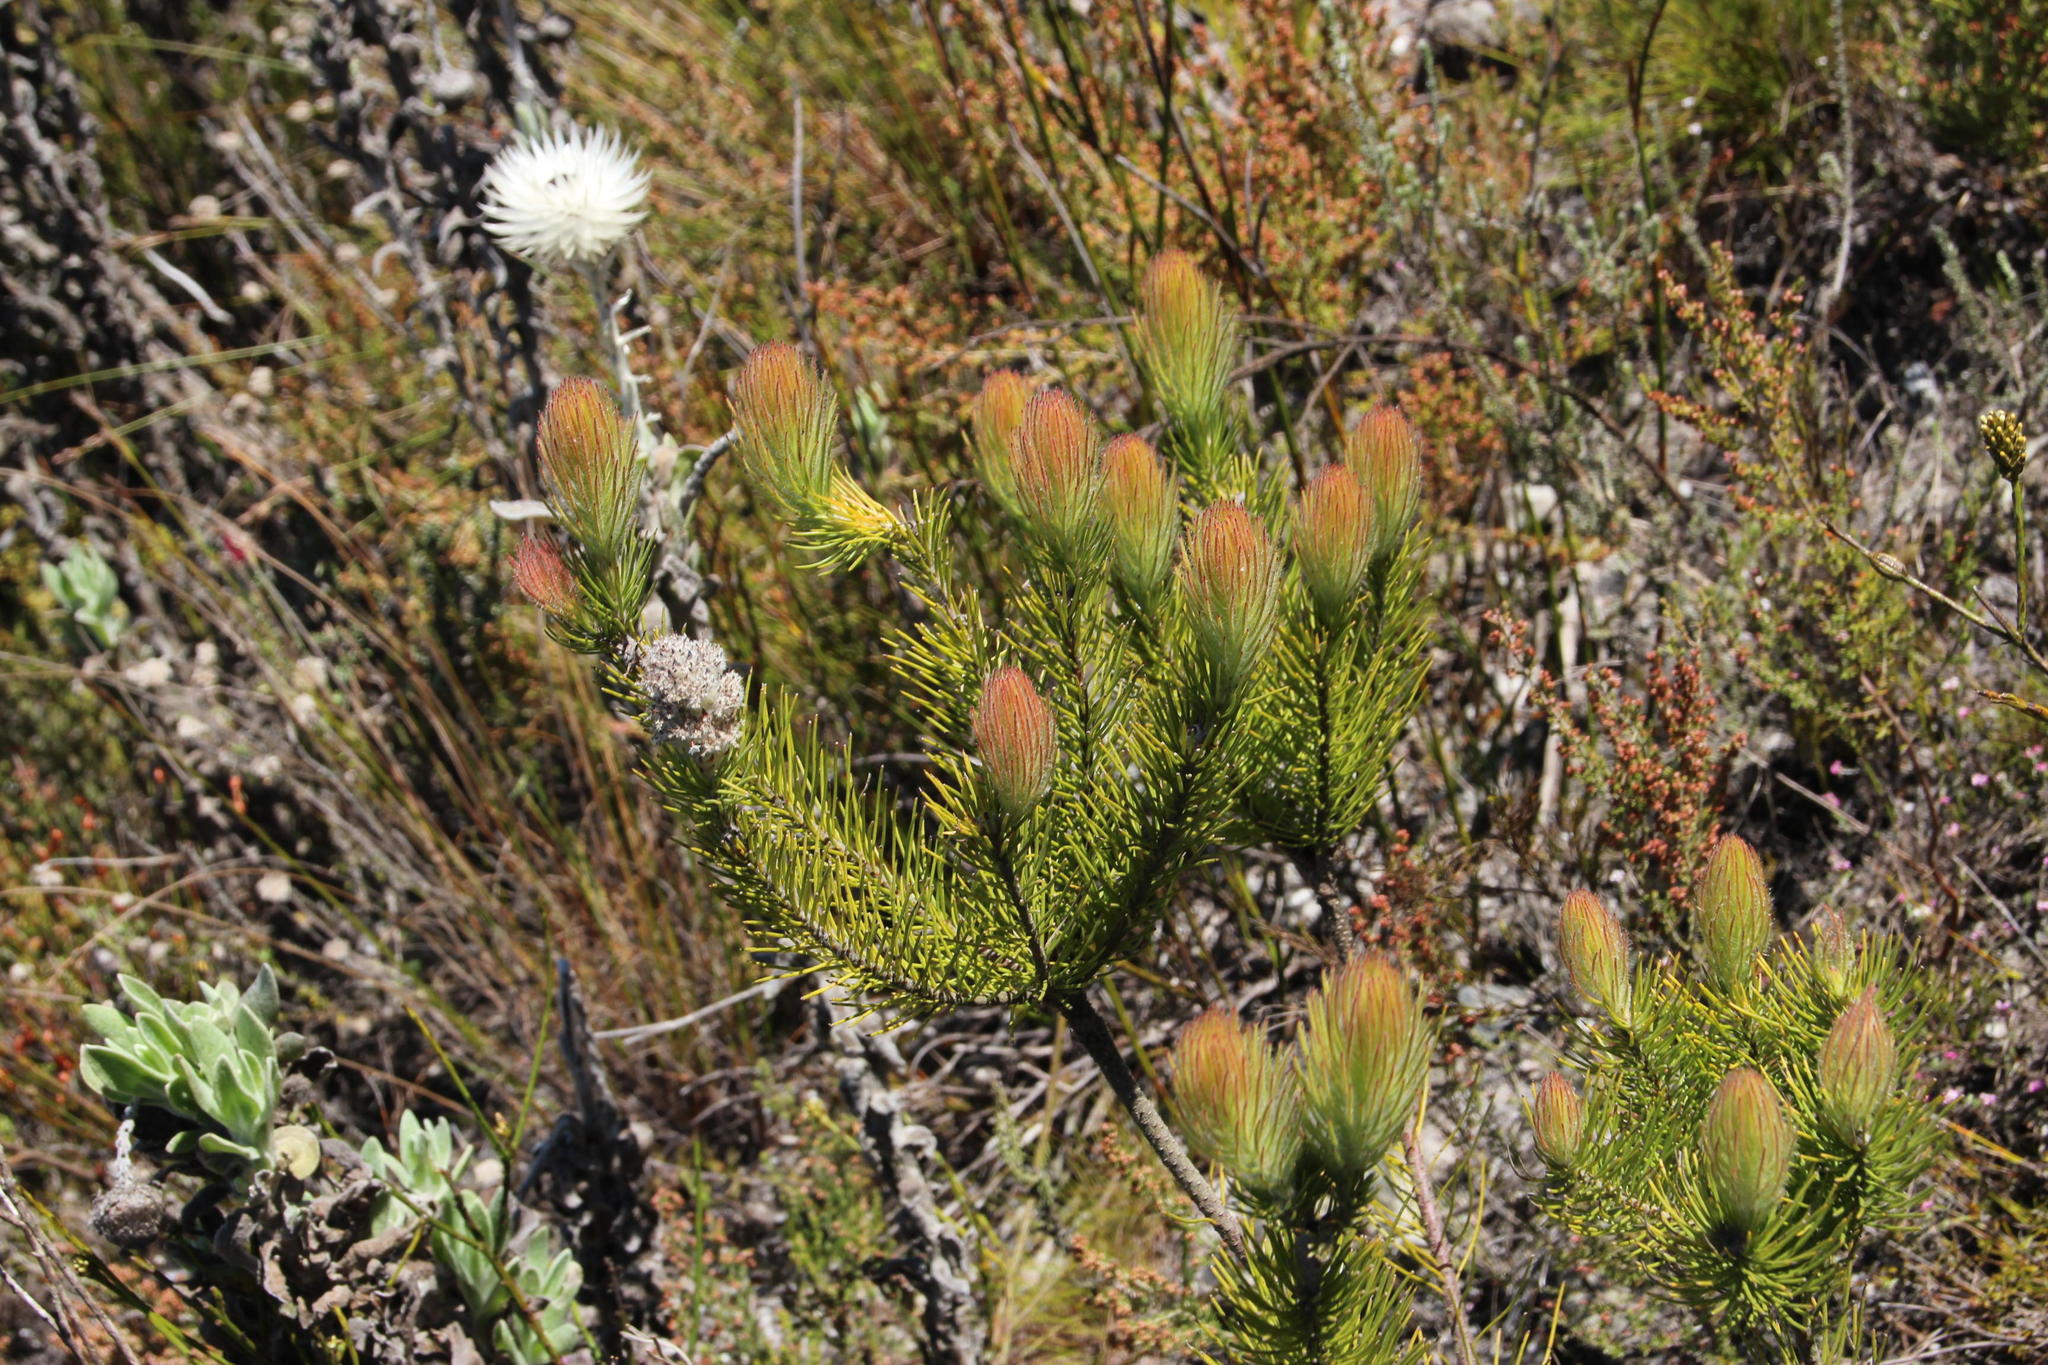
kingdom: Plantae
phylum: Tracheophyta
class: Magnoliopsida
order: Proteales
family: Proteaceae
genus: Sorocephalus
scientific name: Sorocephalus alopecurus
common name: Woolly-stalk clusterhead
